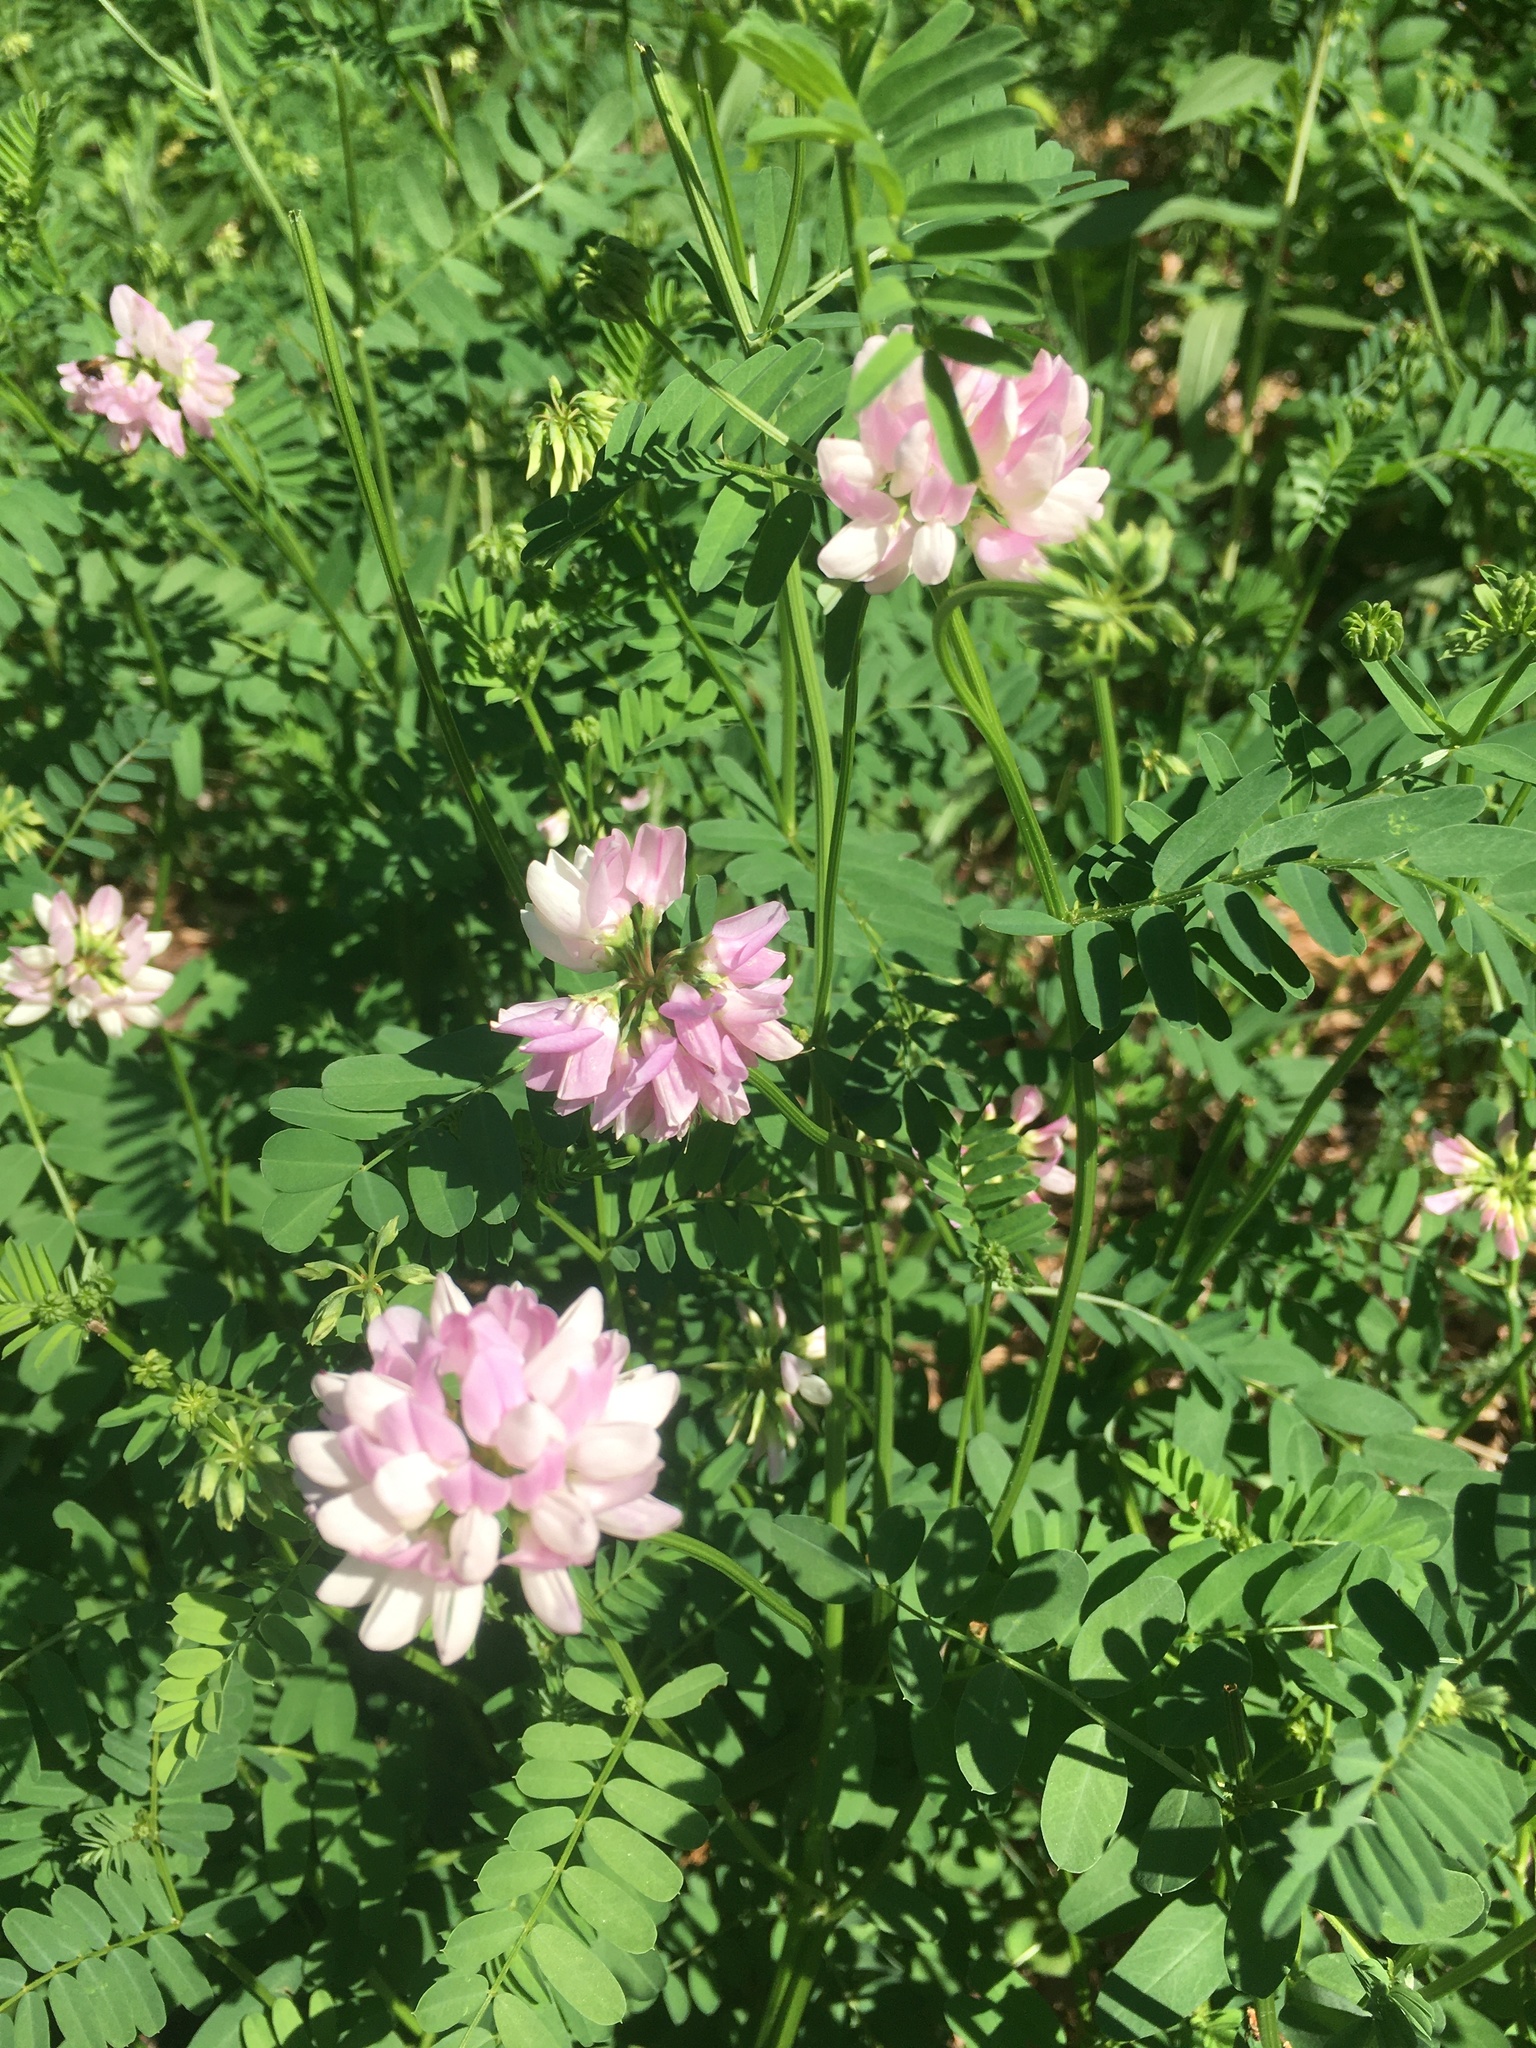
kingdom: Plantae
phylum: Tracheophyta
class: Magnoliopsida
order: Fabales
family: Fabaceae
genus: Coronilla
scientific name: Coronilla varia
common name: Crownvetch
